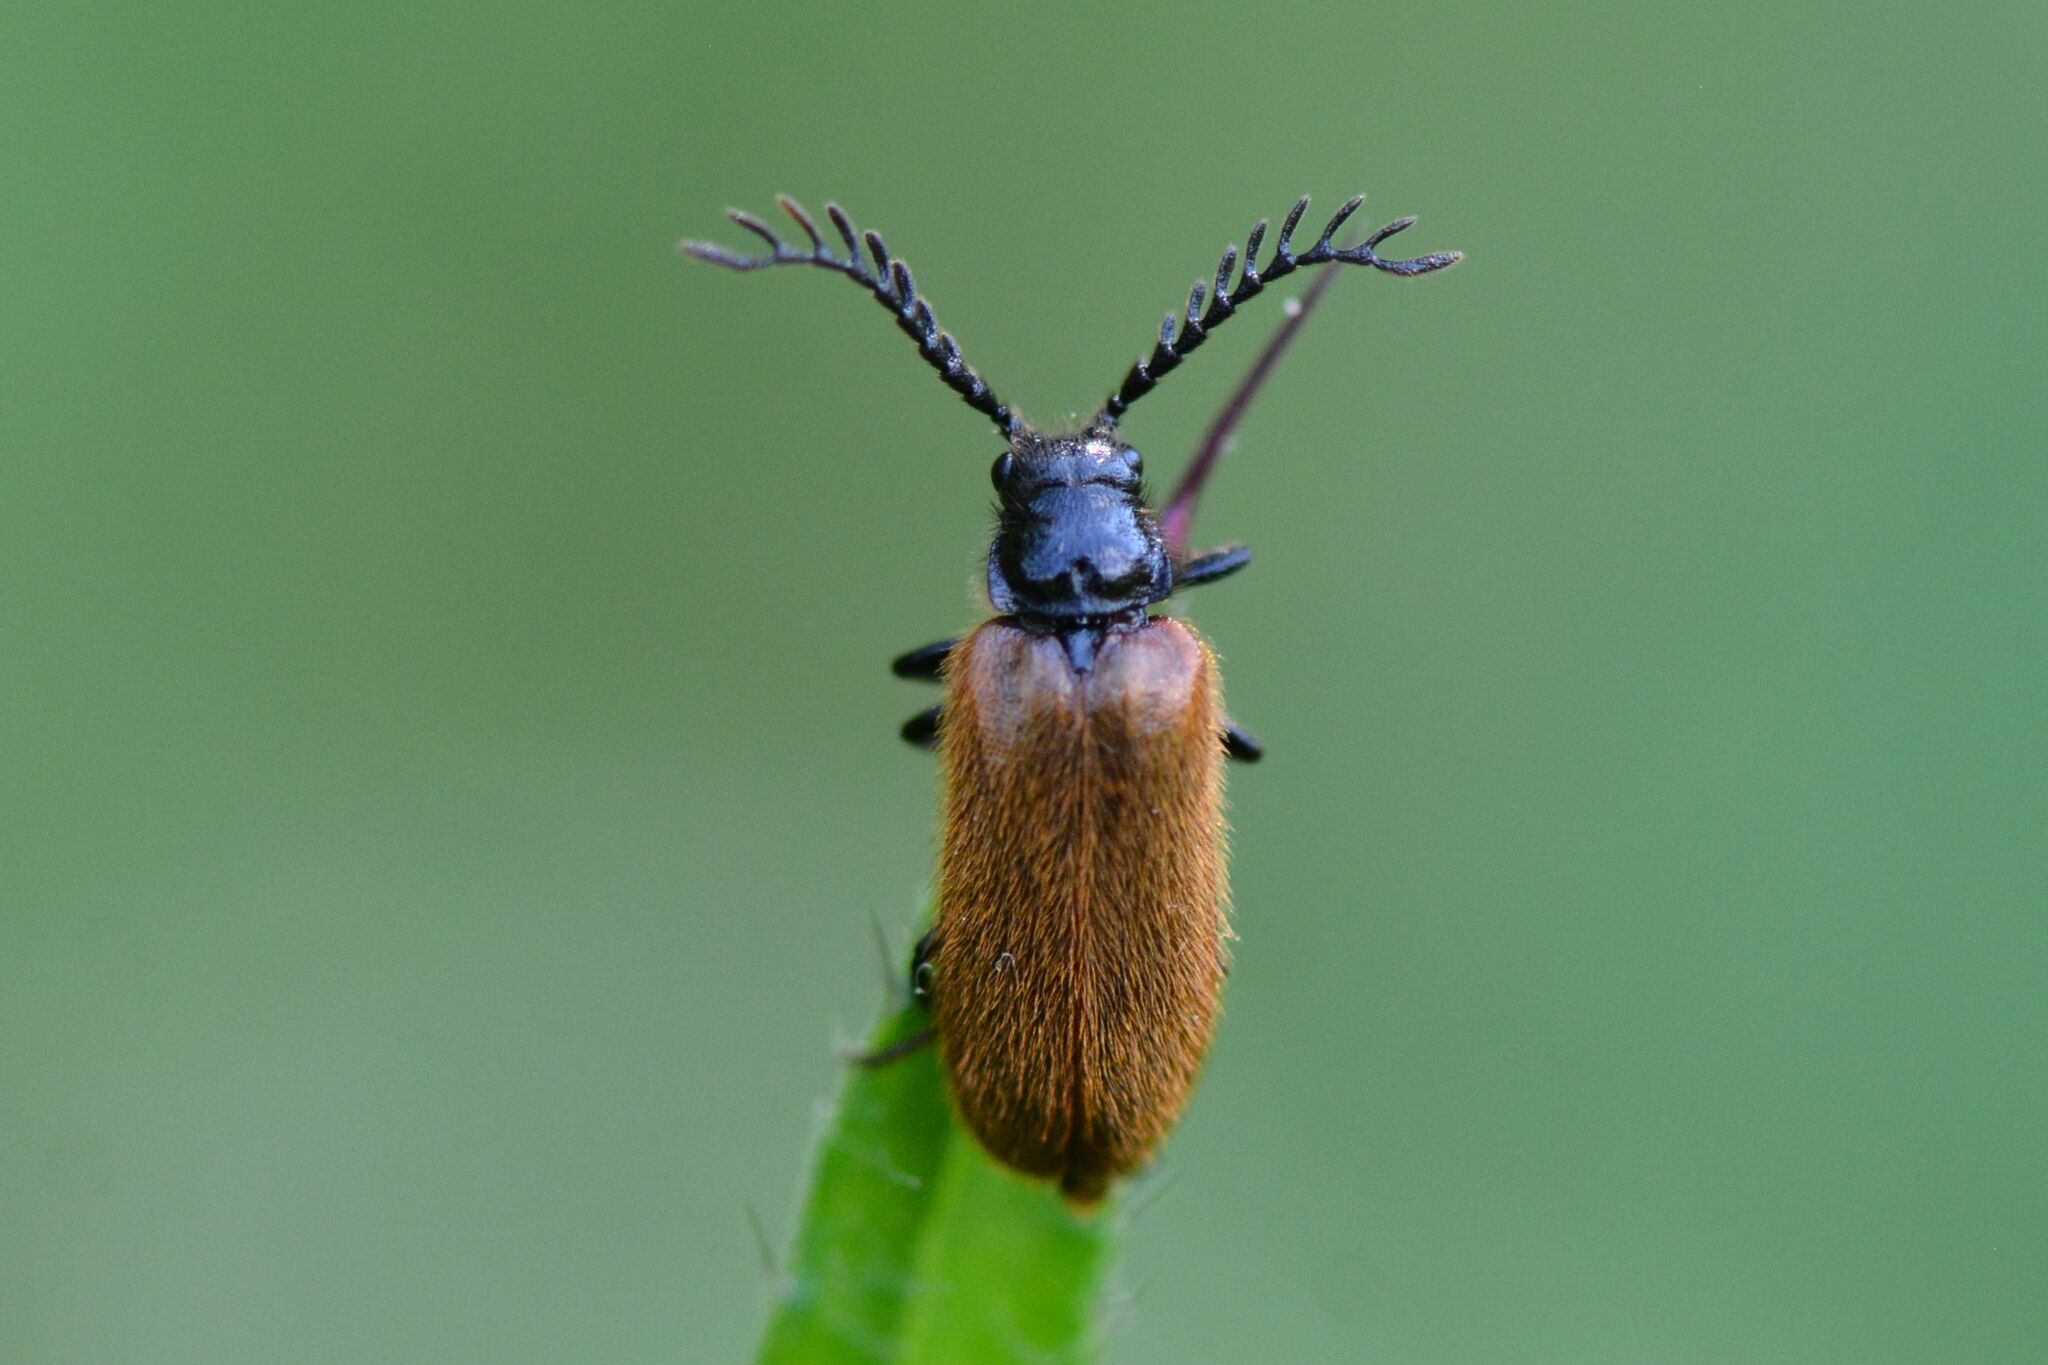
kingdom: Animalia
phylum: Arthropoda
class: Insecta
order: Coleoptera
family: Drilidae
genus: Drilus
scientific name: Drilus flavescens
